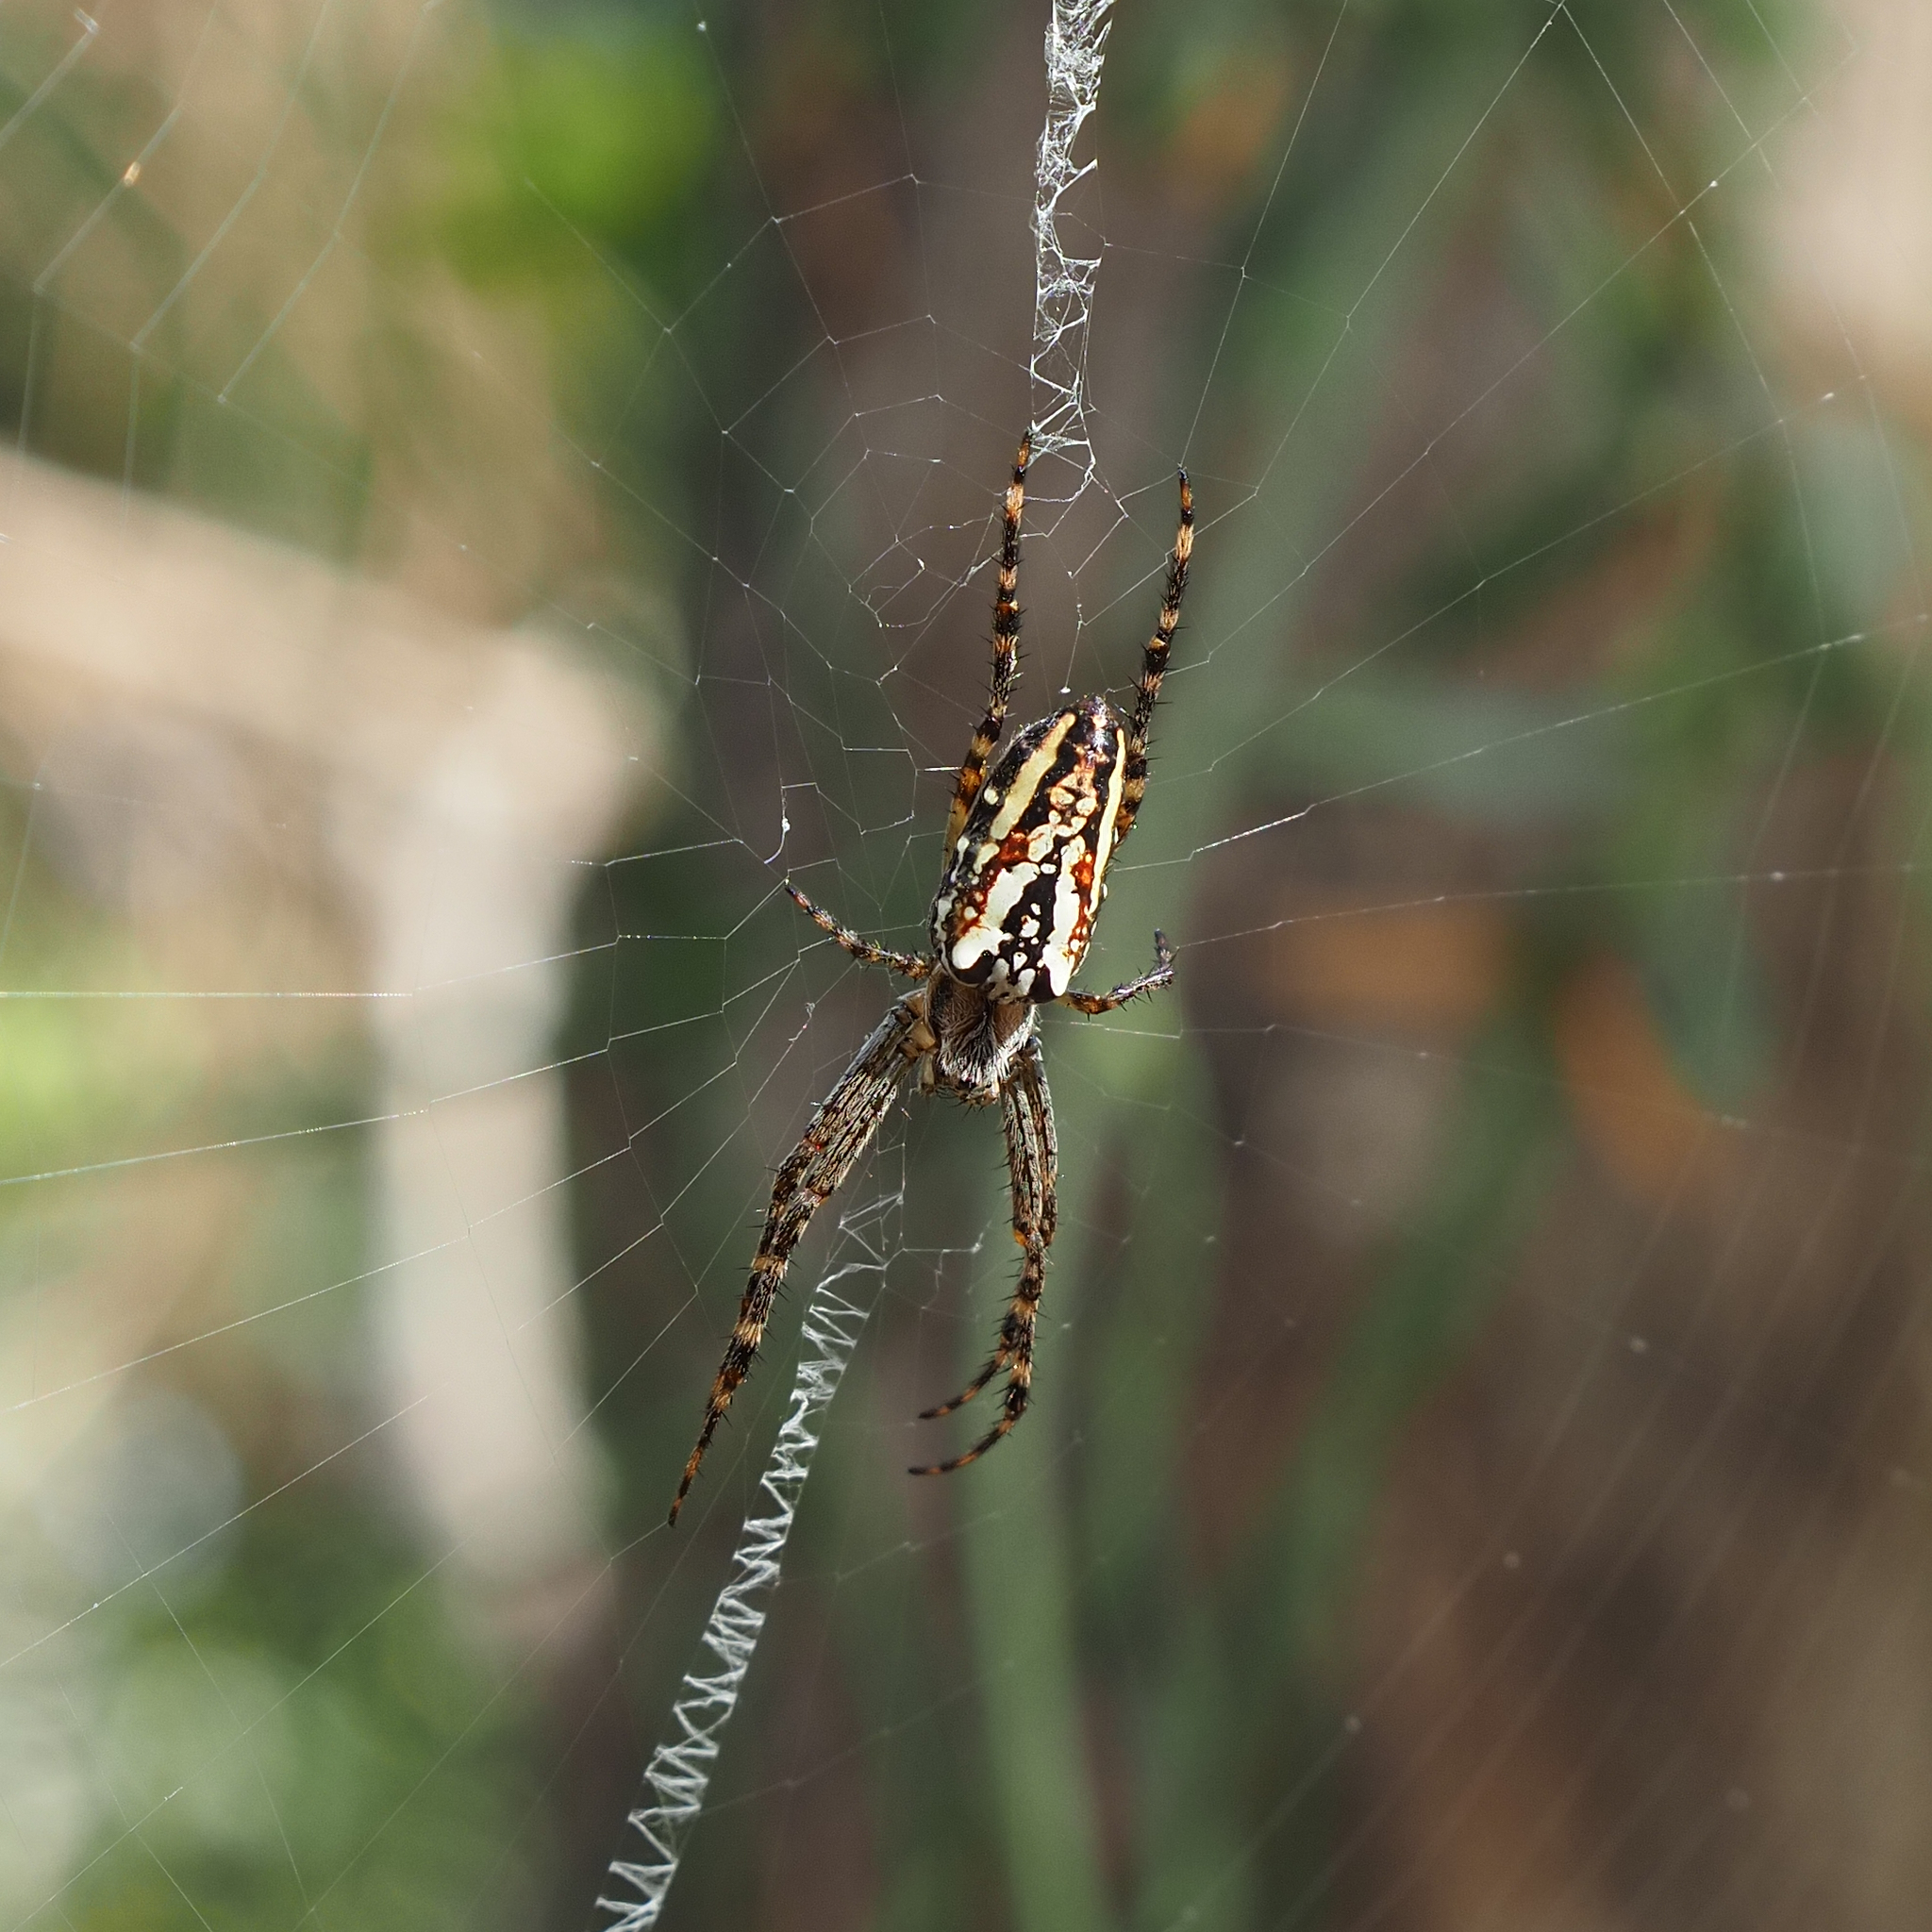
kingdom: Animalia
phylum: Arthropoda
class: Arachnida
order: Araneae
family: Araneidae
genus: Plebs
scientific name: Plebs bradleyi
